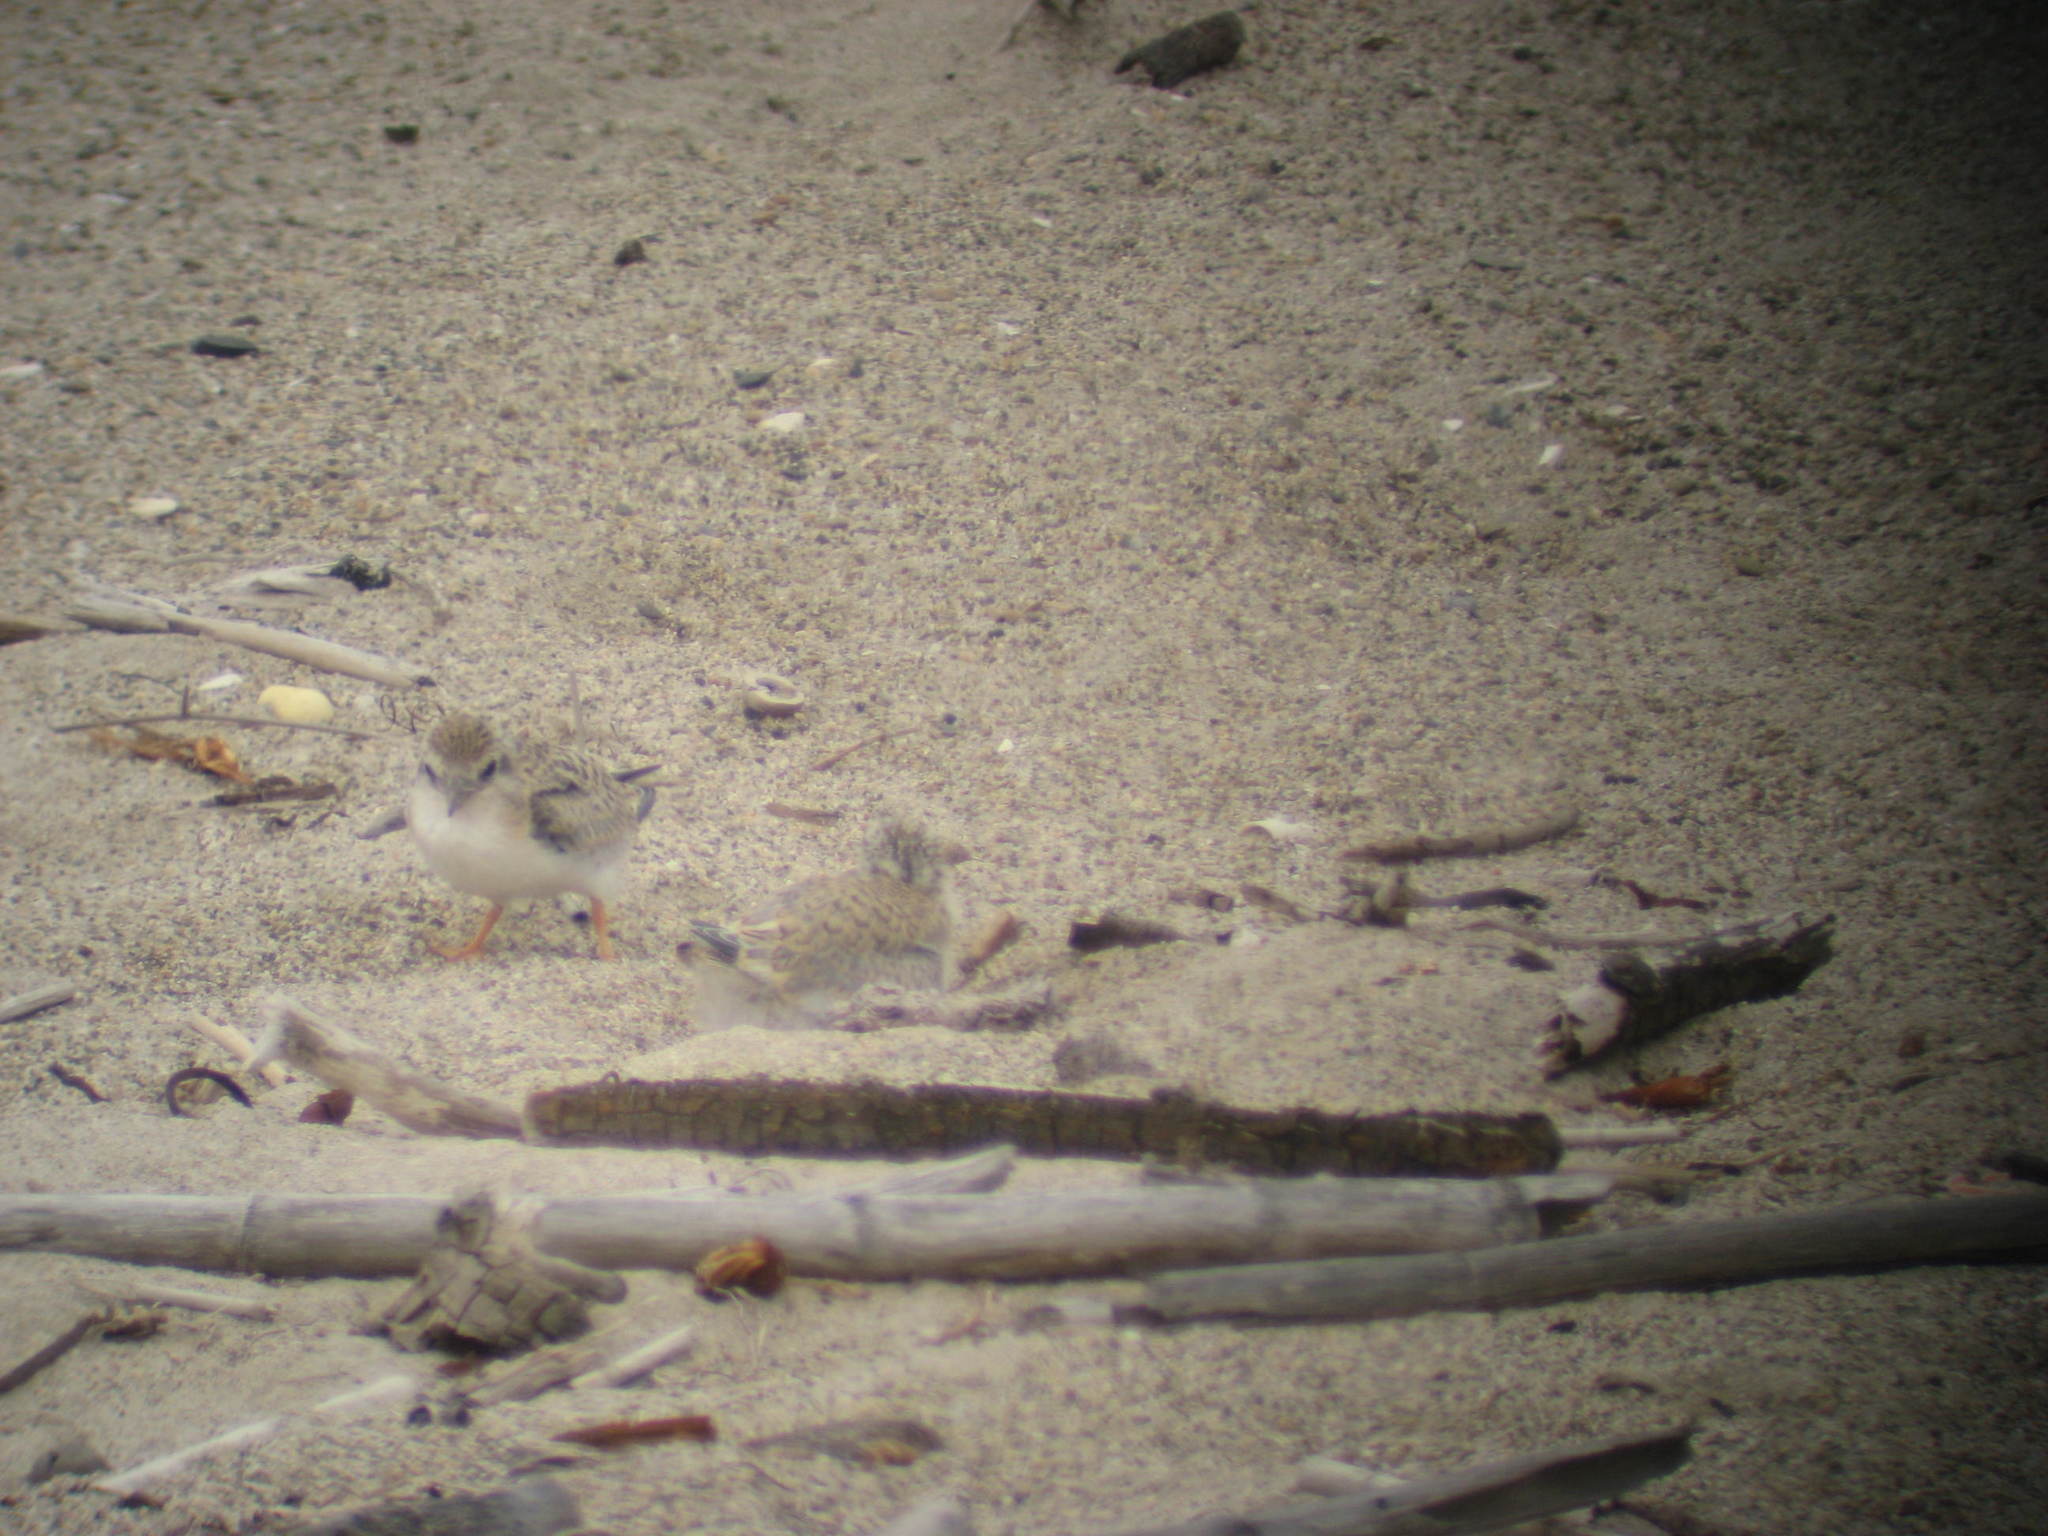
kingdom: Animalia
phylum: Chordata
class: Aves
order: Charadriiformes
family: Laridae
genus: Sternula
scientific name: Sternula antillarum
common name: Least tern
